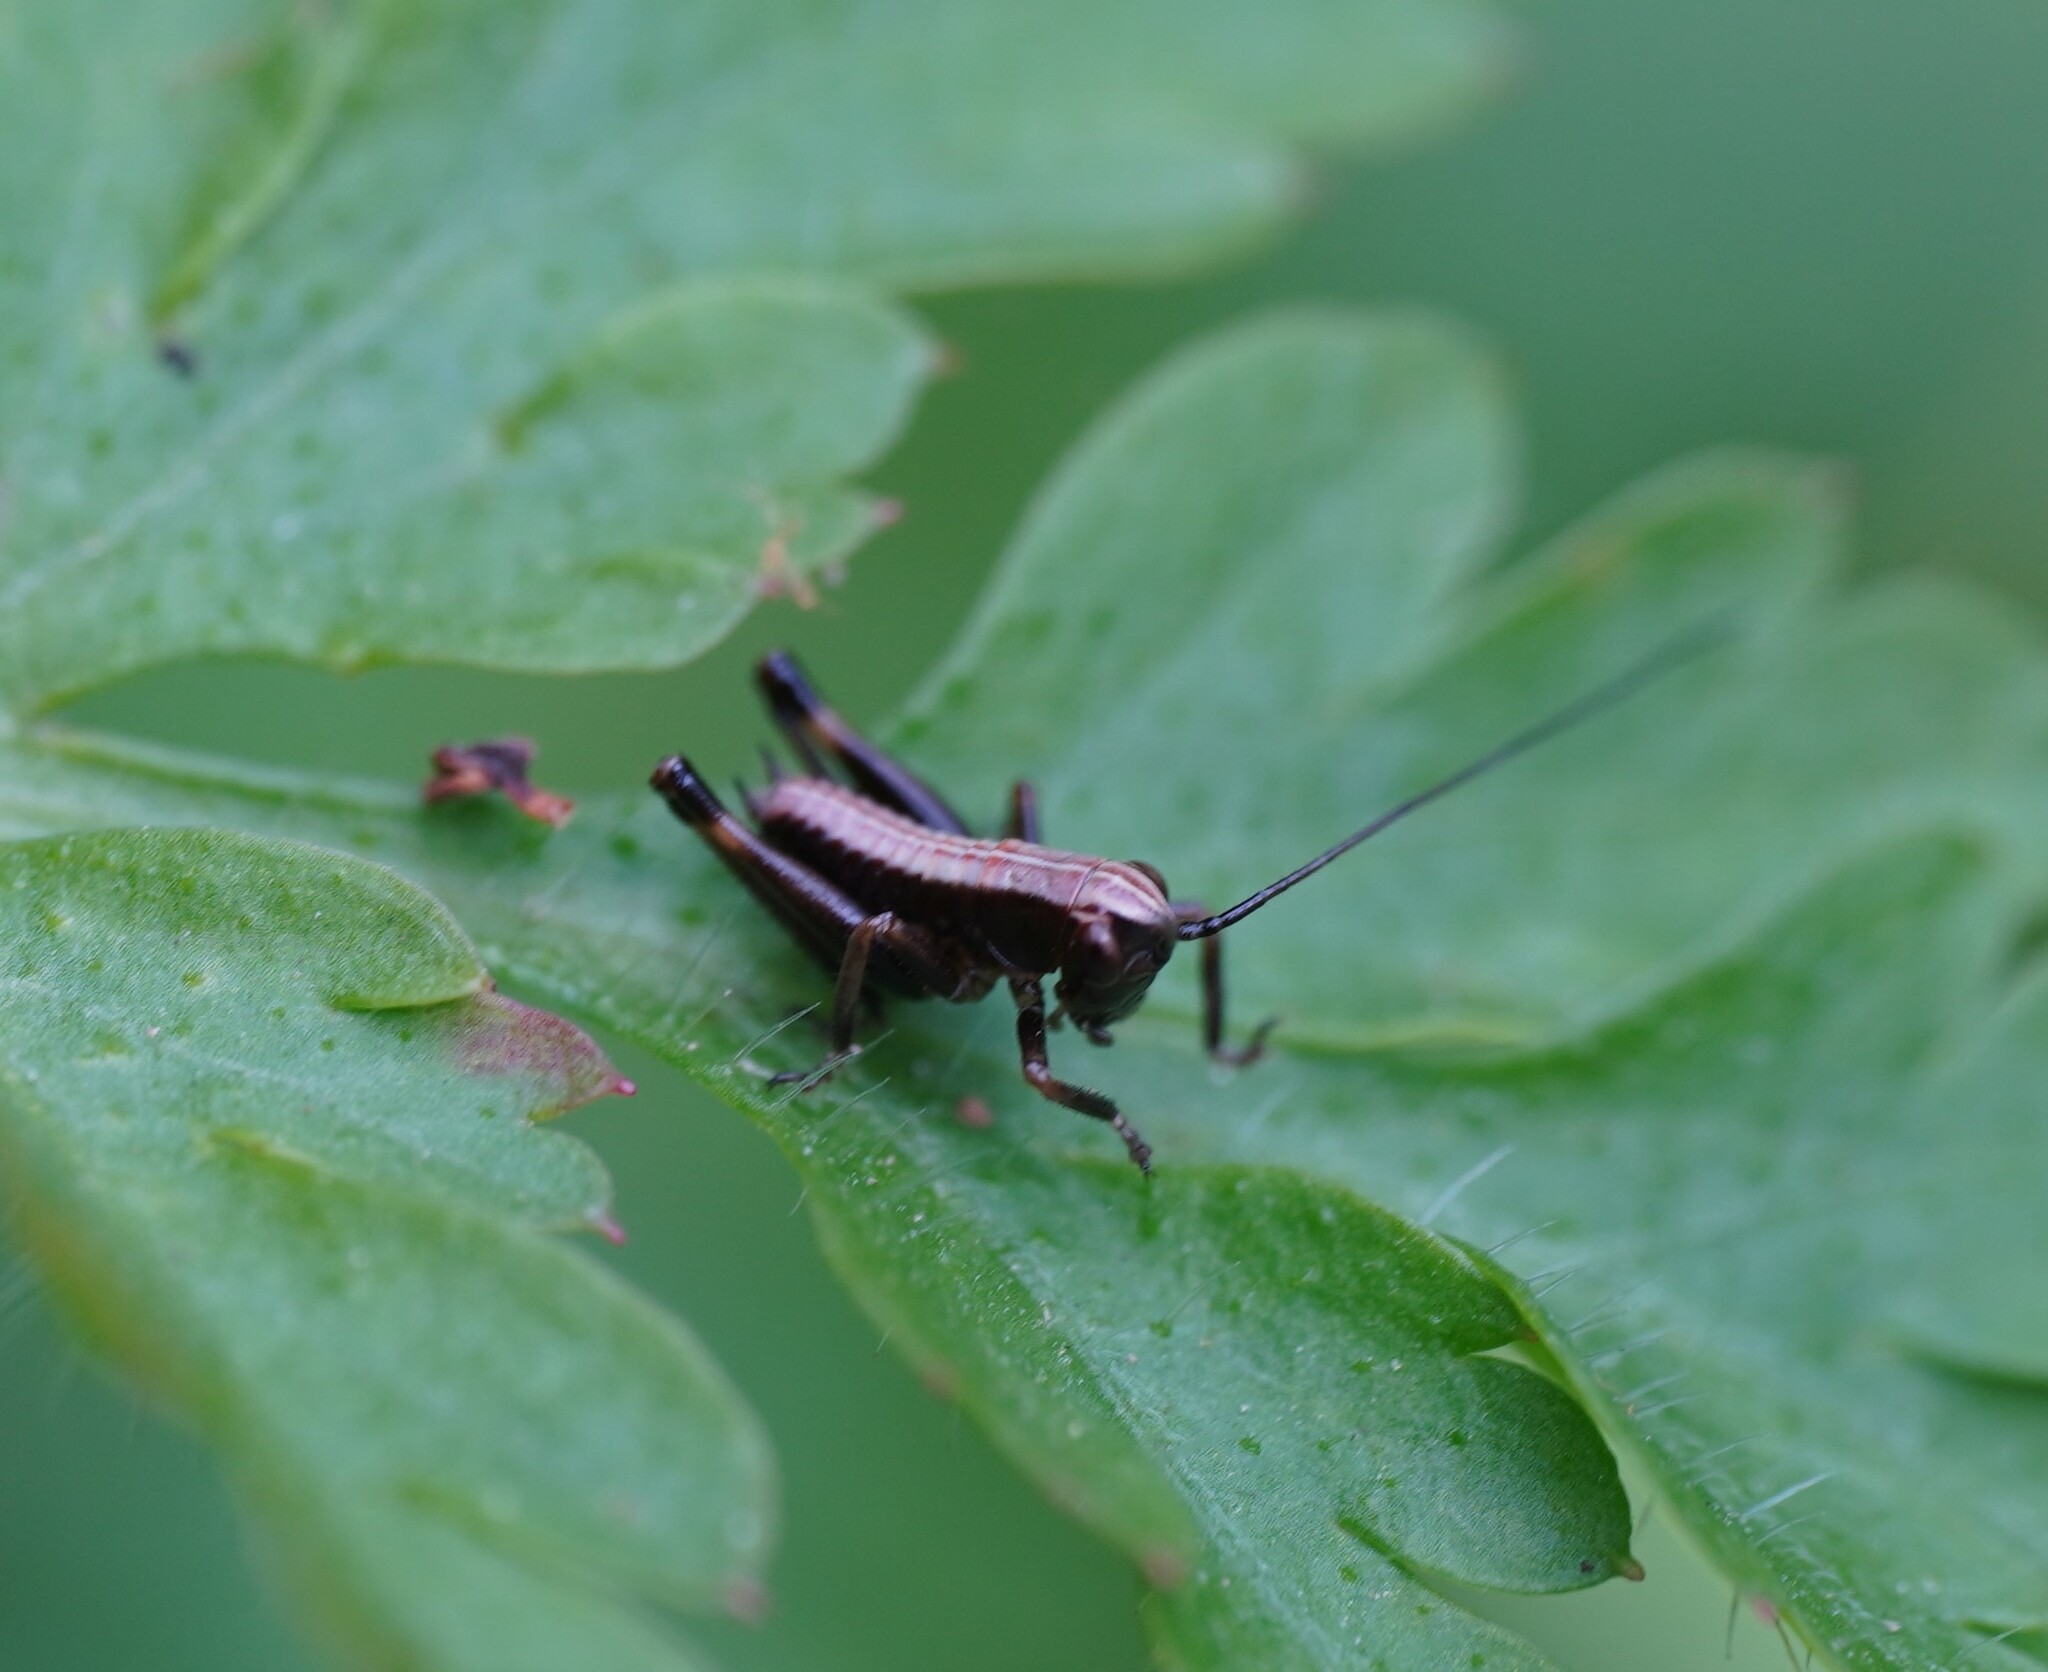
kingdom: Animalia
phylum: Arthropoda
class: Insecta
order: Orthoptera
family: Tettigoniidae
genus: Pholidoptera
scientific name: Pholidoptera griseoaptera
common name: Dark bush-cricket
